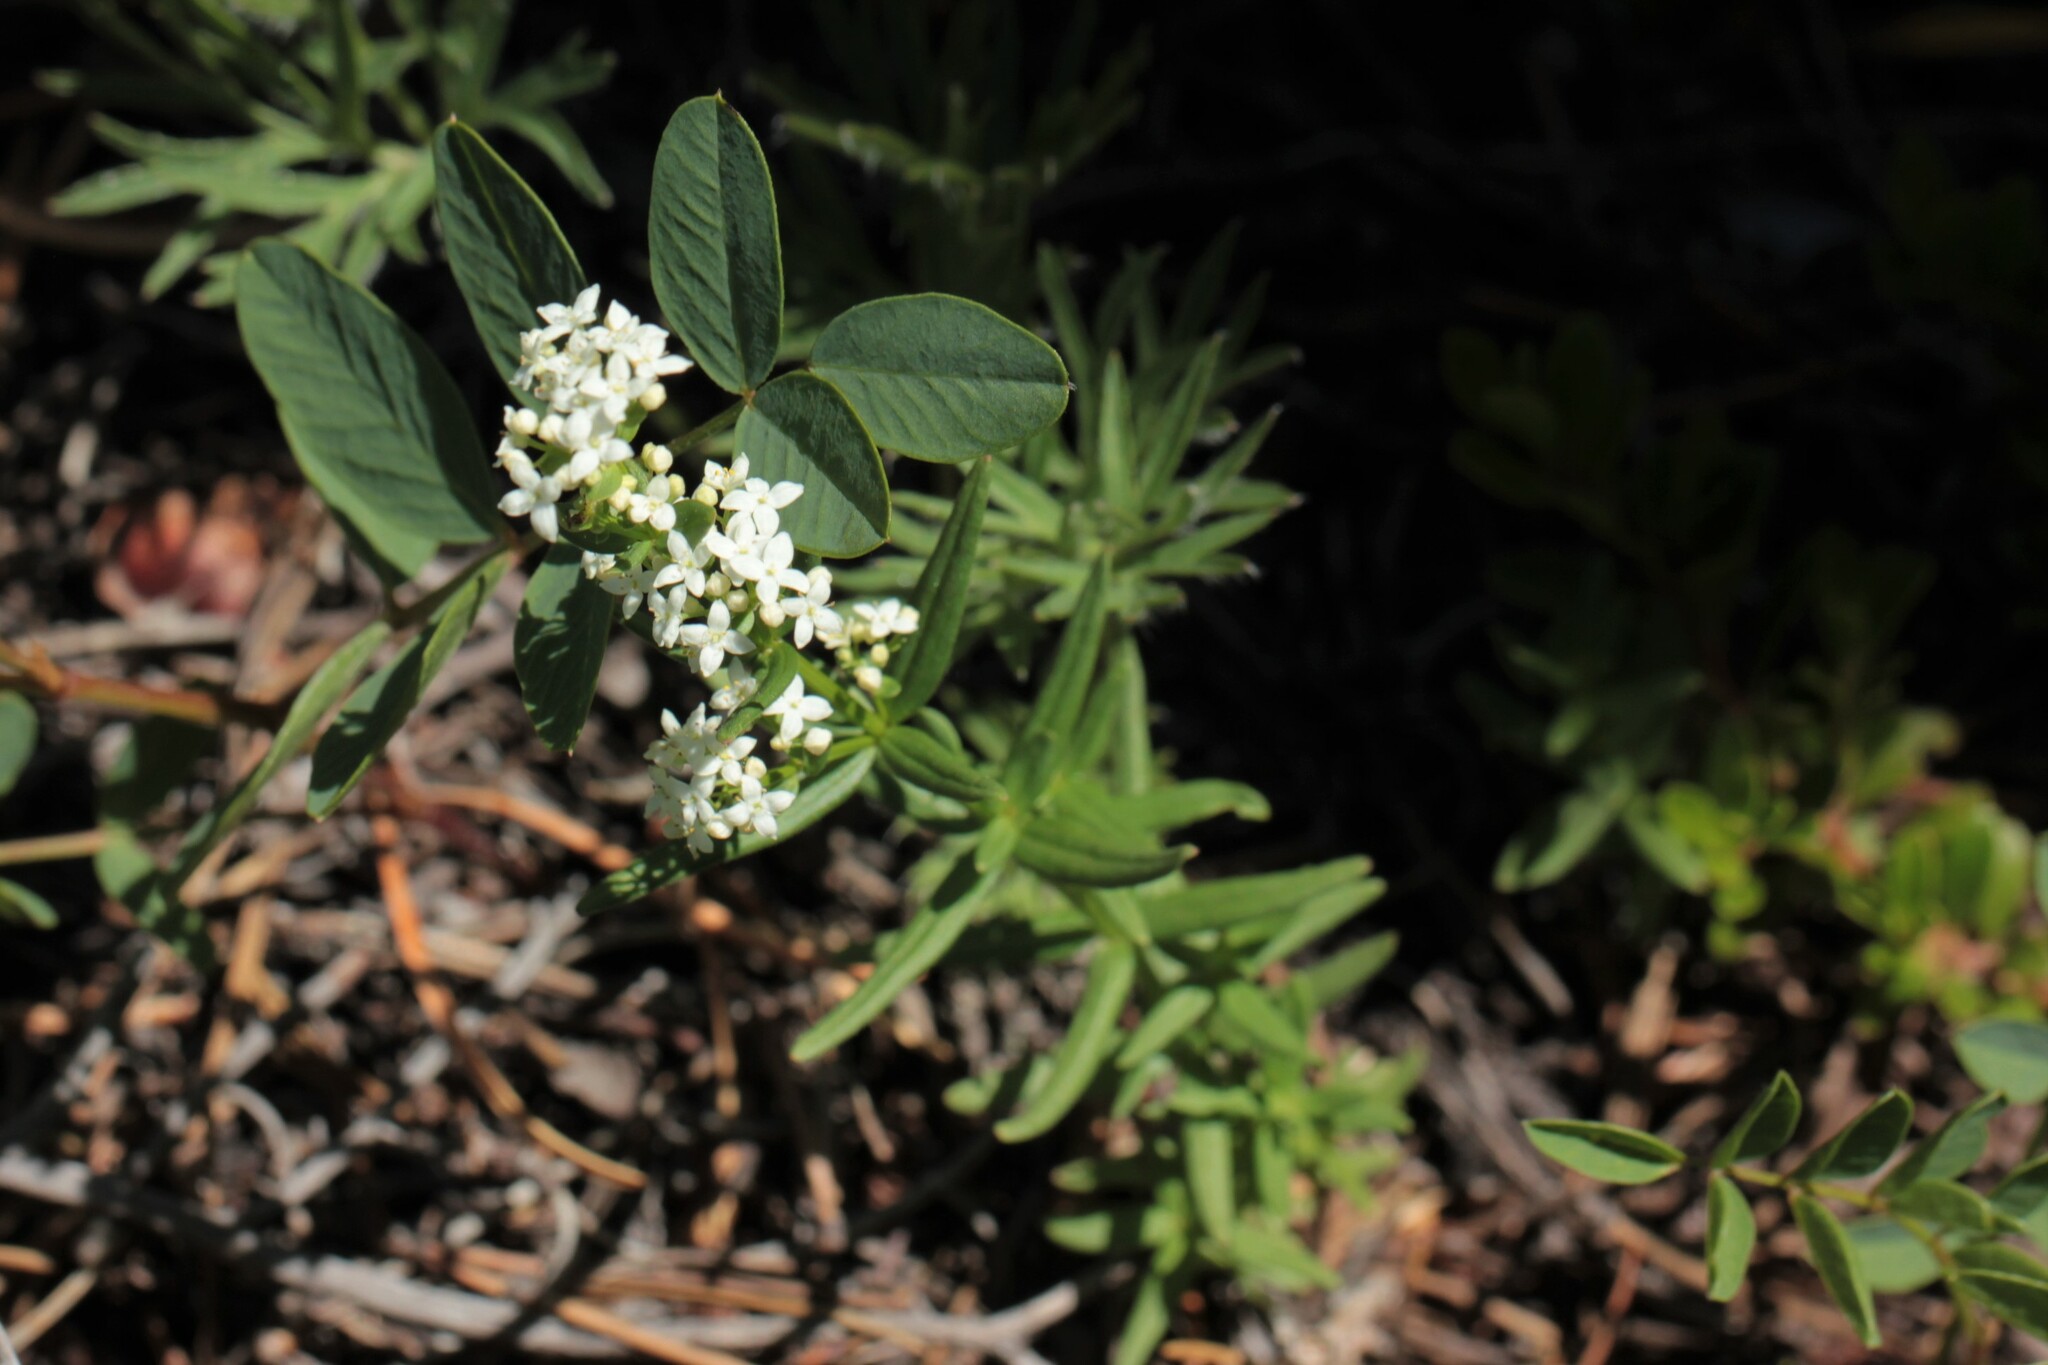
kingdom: Plantae
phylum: Tracheophyta
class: Magnoliopsida
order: Gentianales
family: Rubiaceae
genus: Galium
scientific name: Galium boreale
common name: Northern bedstraw
